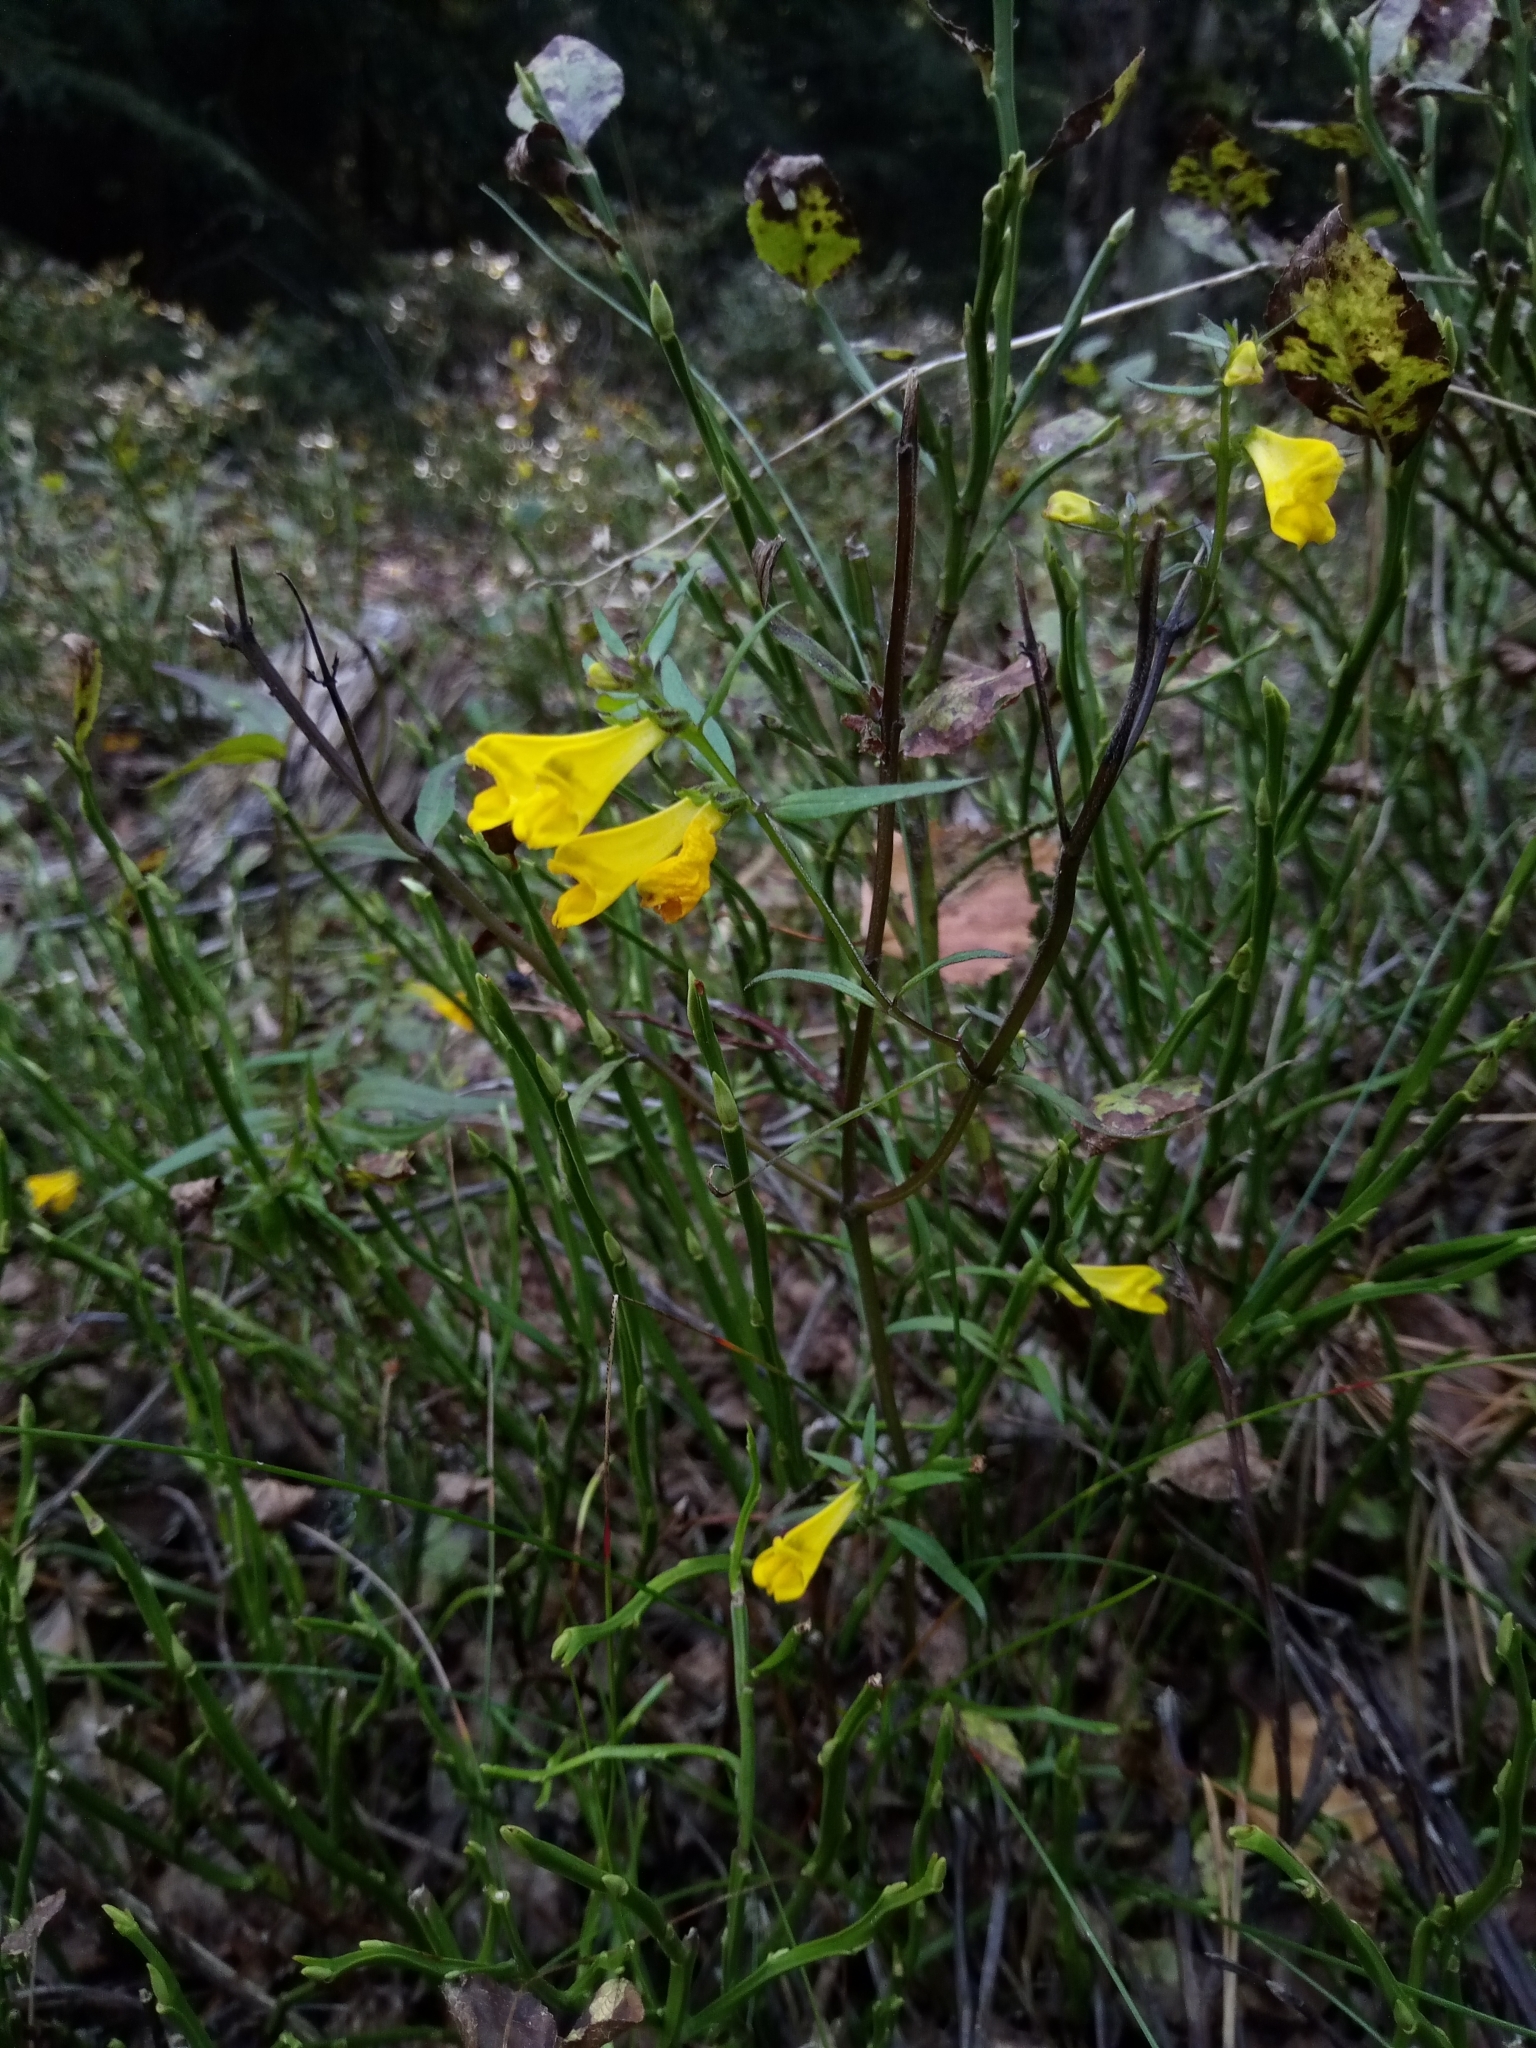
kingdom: Plantae
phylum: Tracheophyta
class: Magnoliopsida
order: Lamiales
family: Orobanchaceae
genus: Melampyrum
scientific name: Melampyrum pratense
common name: Common cow-wheat
